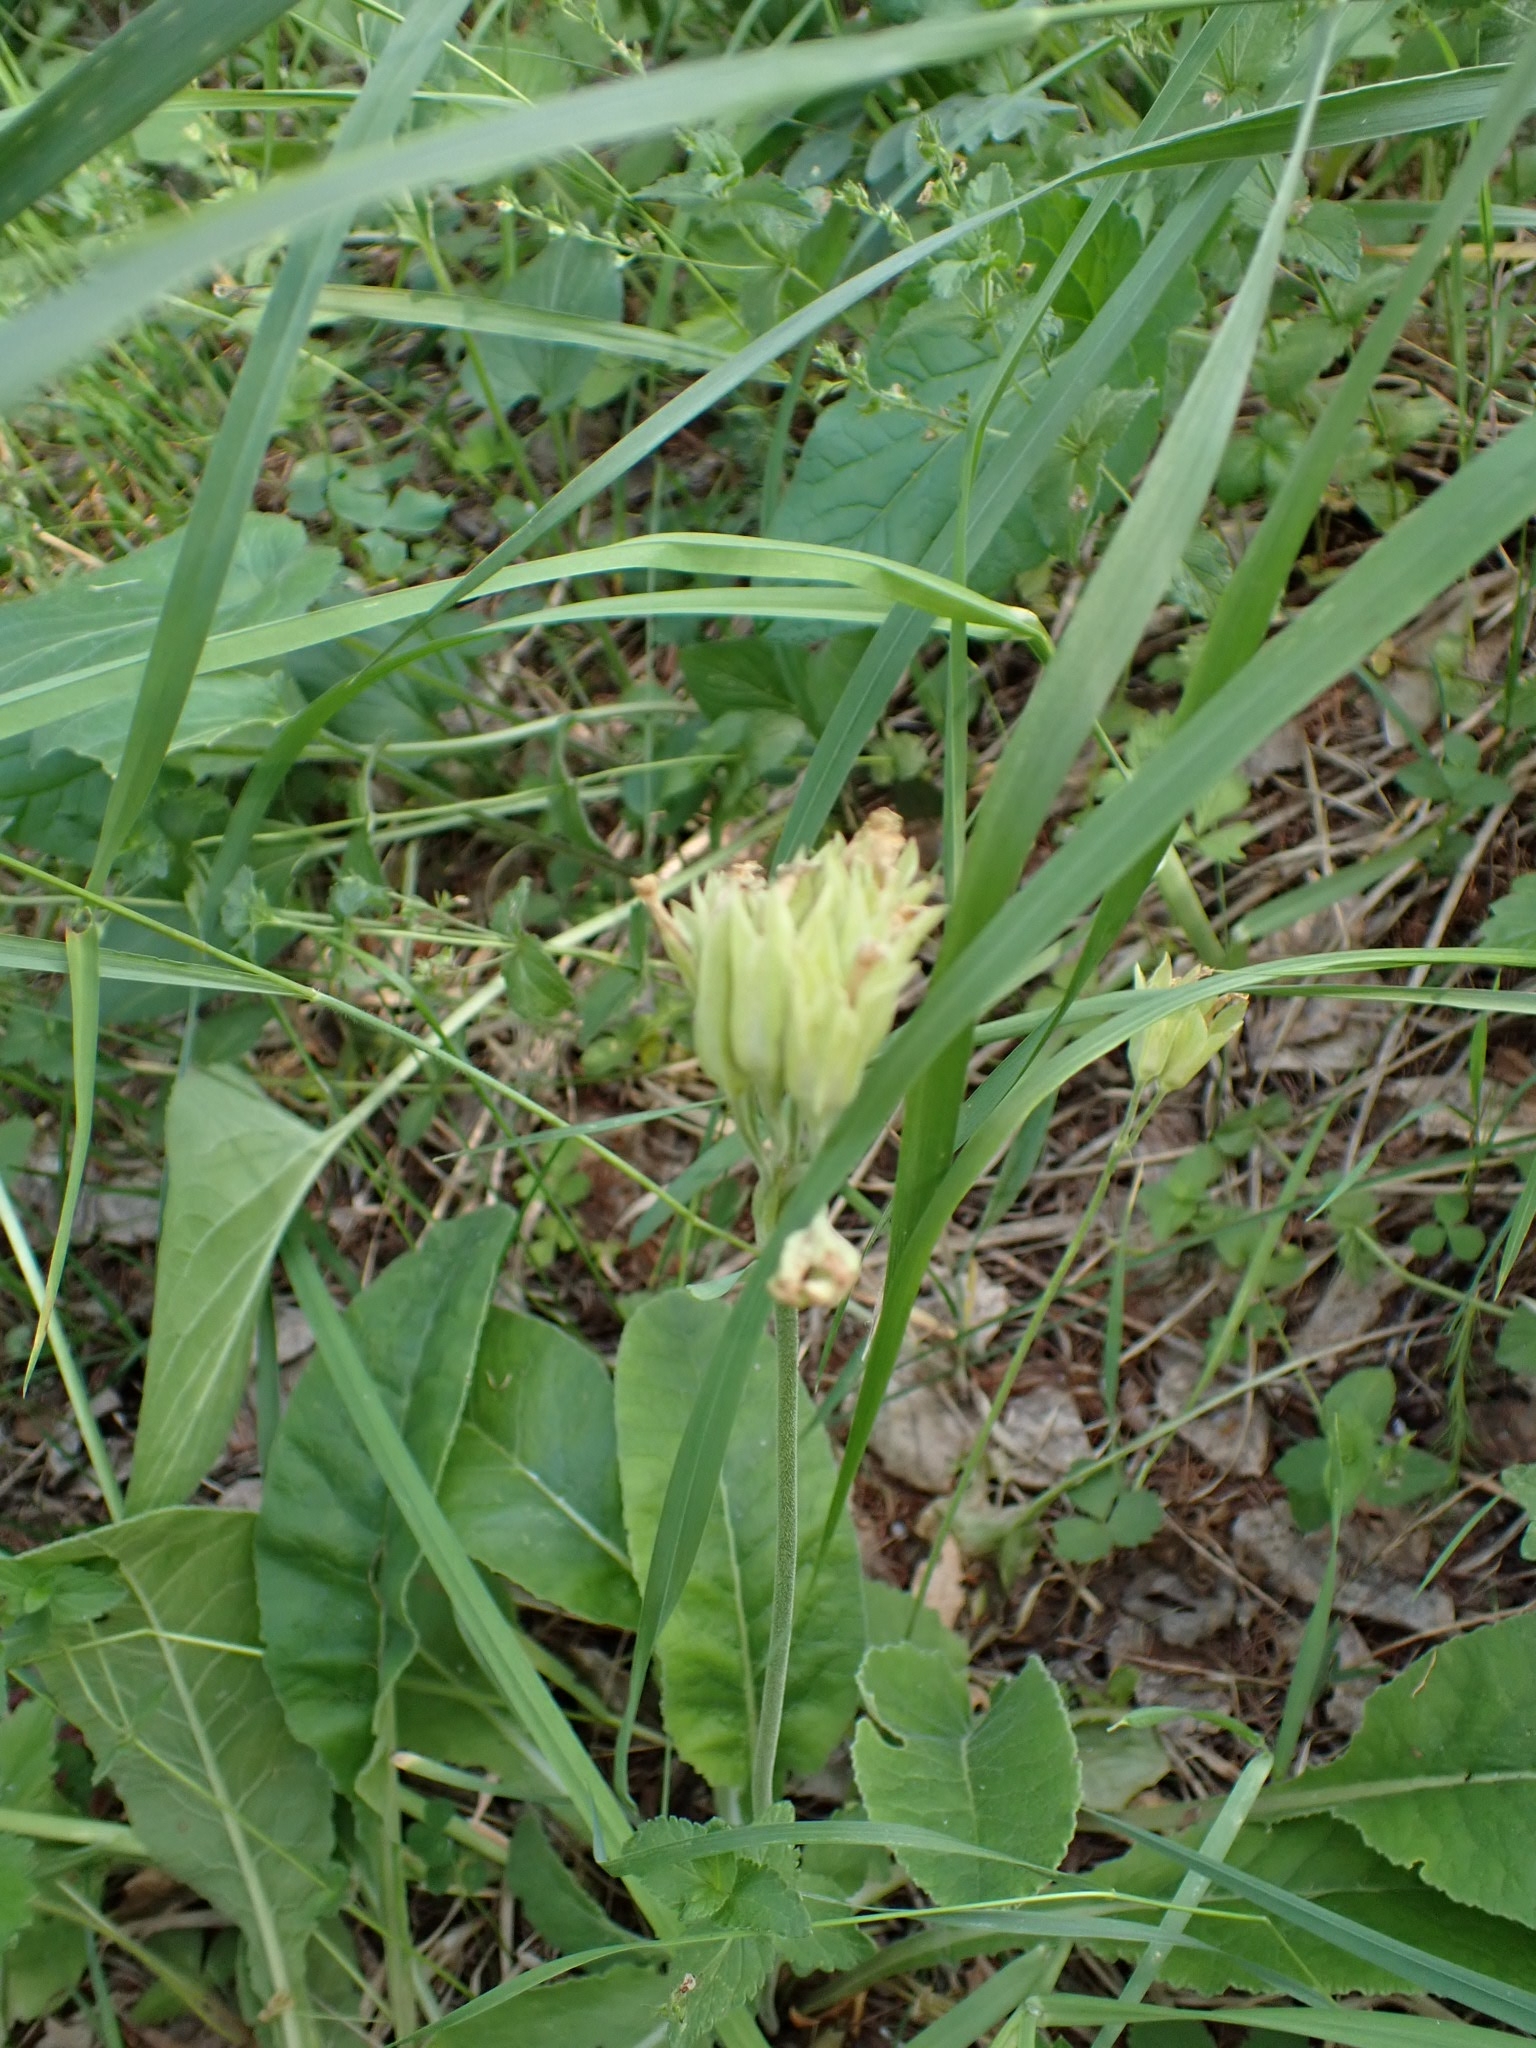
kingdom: Plantae
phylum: Tracheophyta
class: Magnoliopsida
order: Ericales
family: Primulaceae
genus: Primula
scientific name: Primula veris
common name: Cowslip
